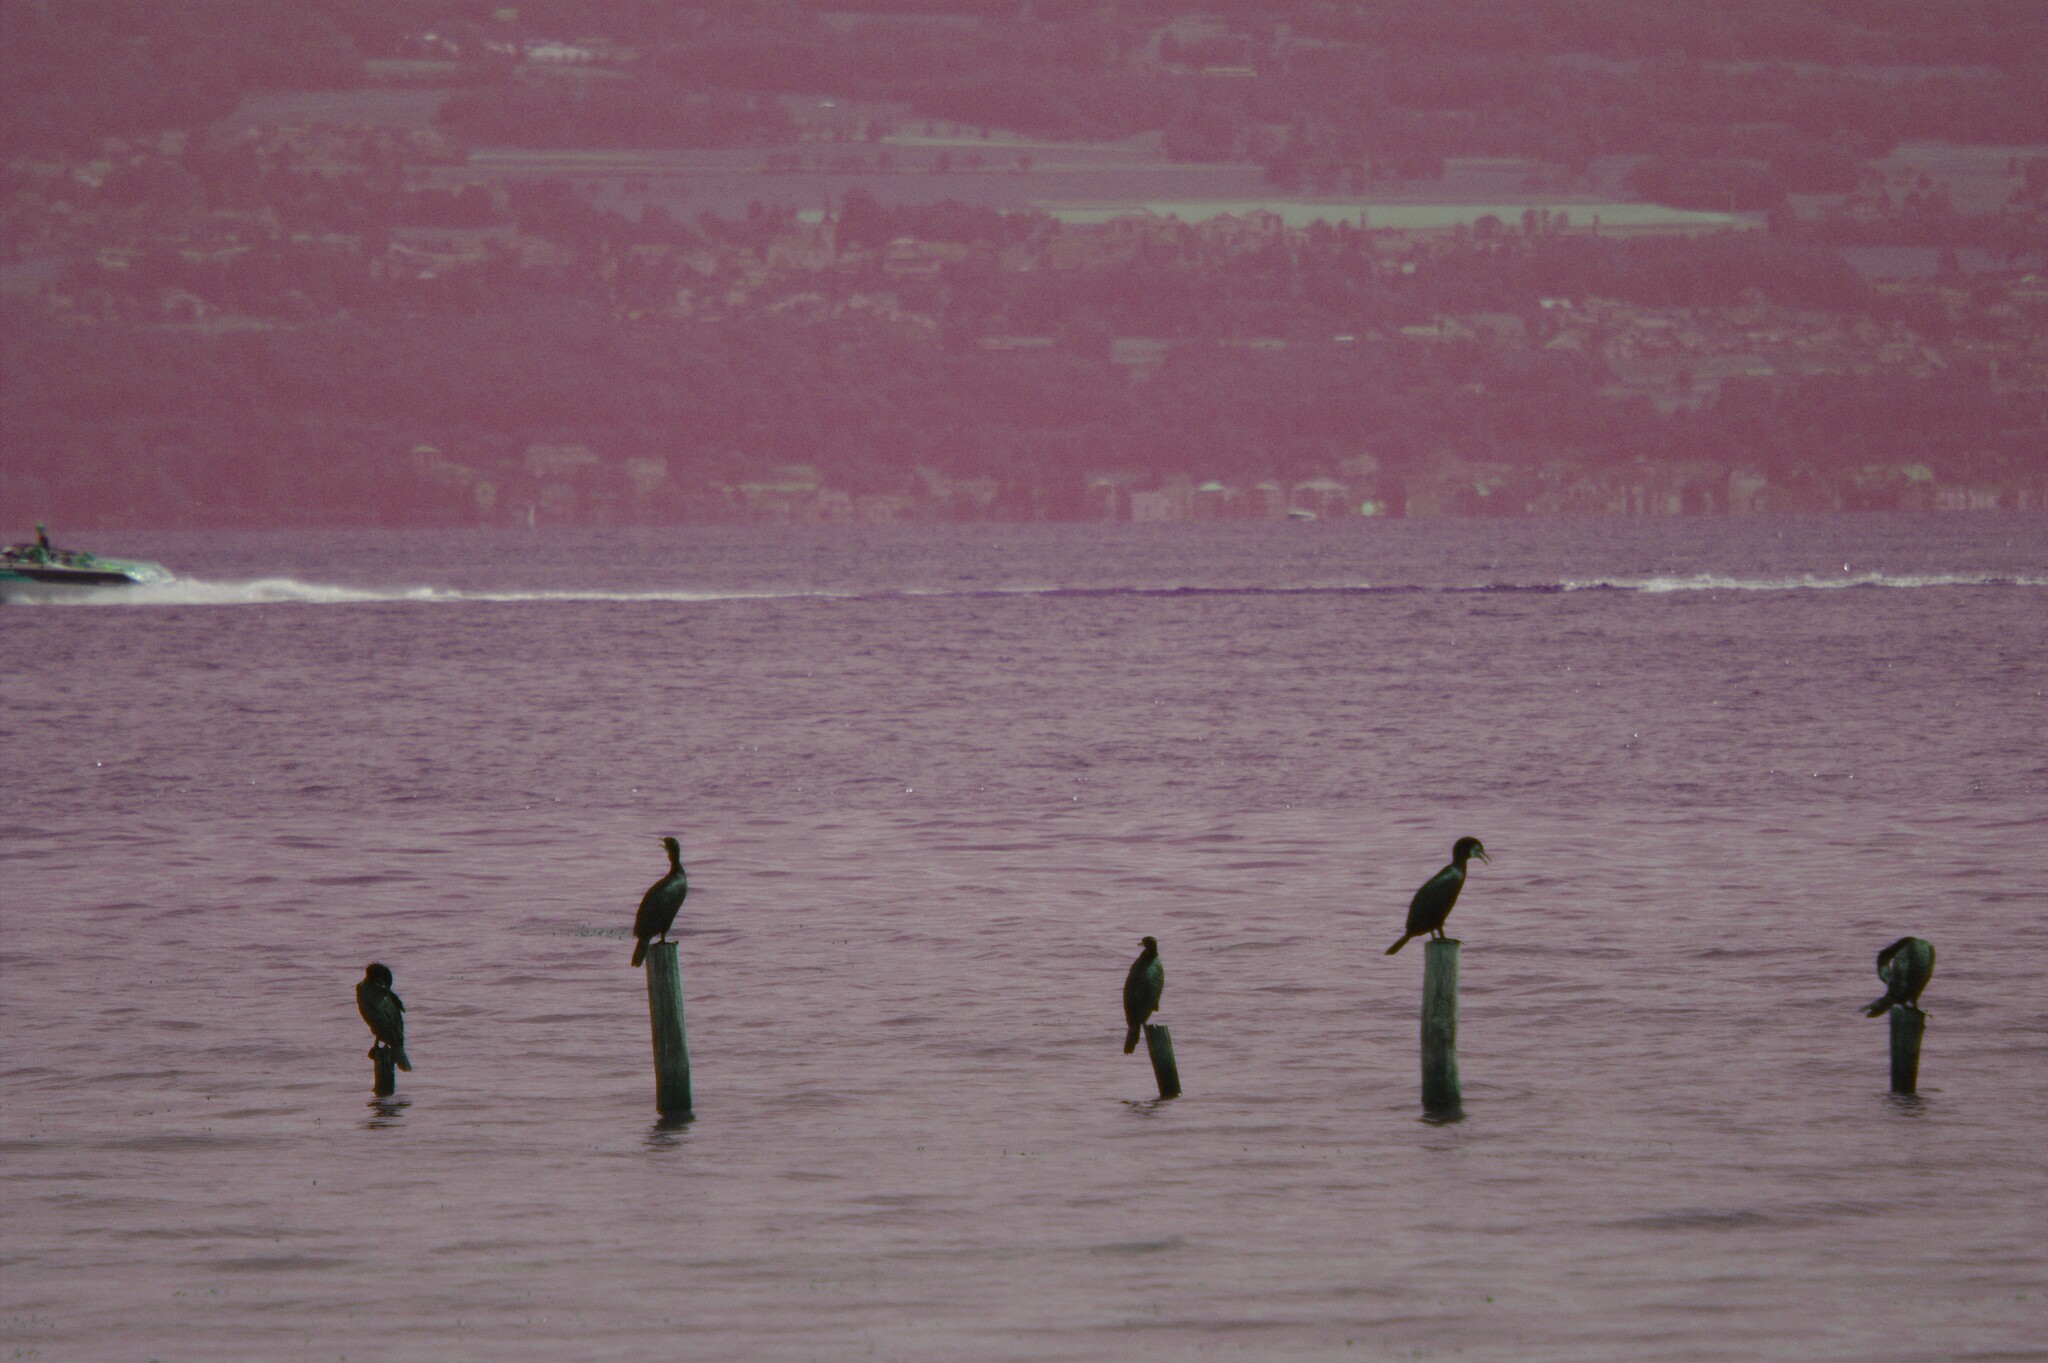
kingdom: Animalia
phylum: Chordata
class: Aves
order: Suliformes
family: Phalacrocoracidae
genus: Phalacrocorax
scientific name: Phalacrocorax carbo
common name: Great cormorant
